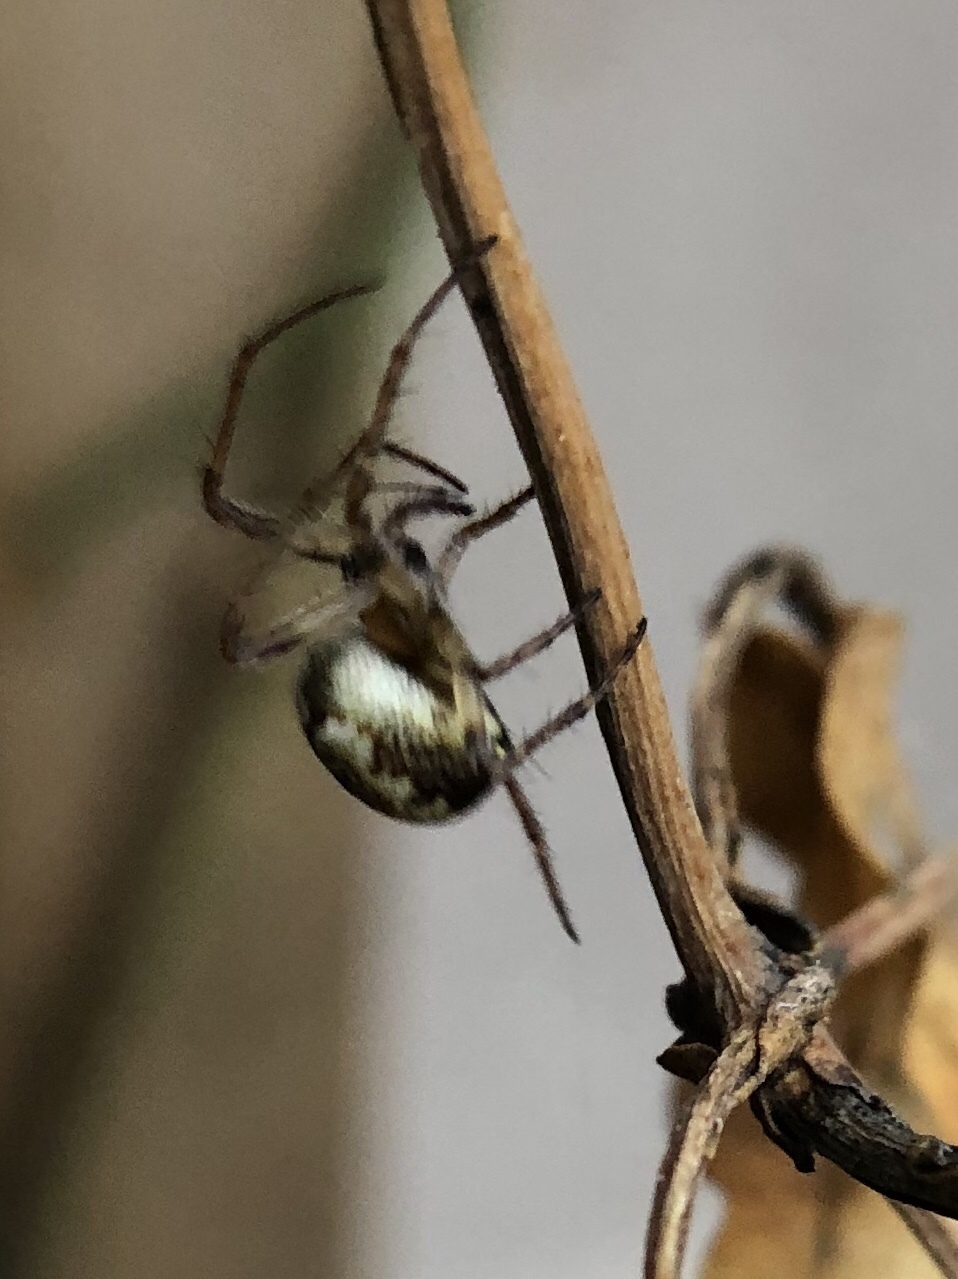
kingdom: Animalia
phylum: Arthropoda
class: Arachnida
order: Araneae
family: Araneidae
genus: Zilla
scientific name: Zilla diodia
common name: Zilla diodia
